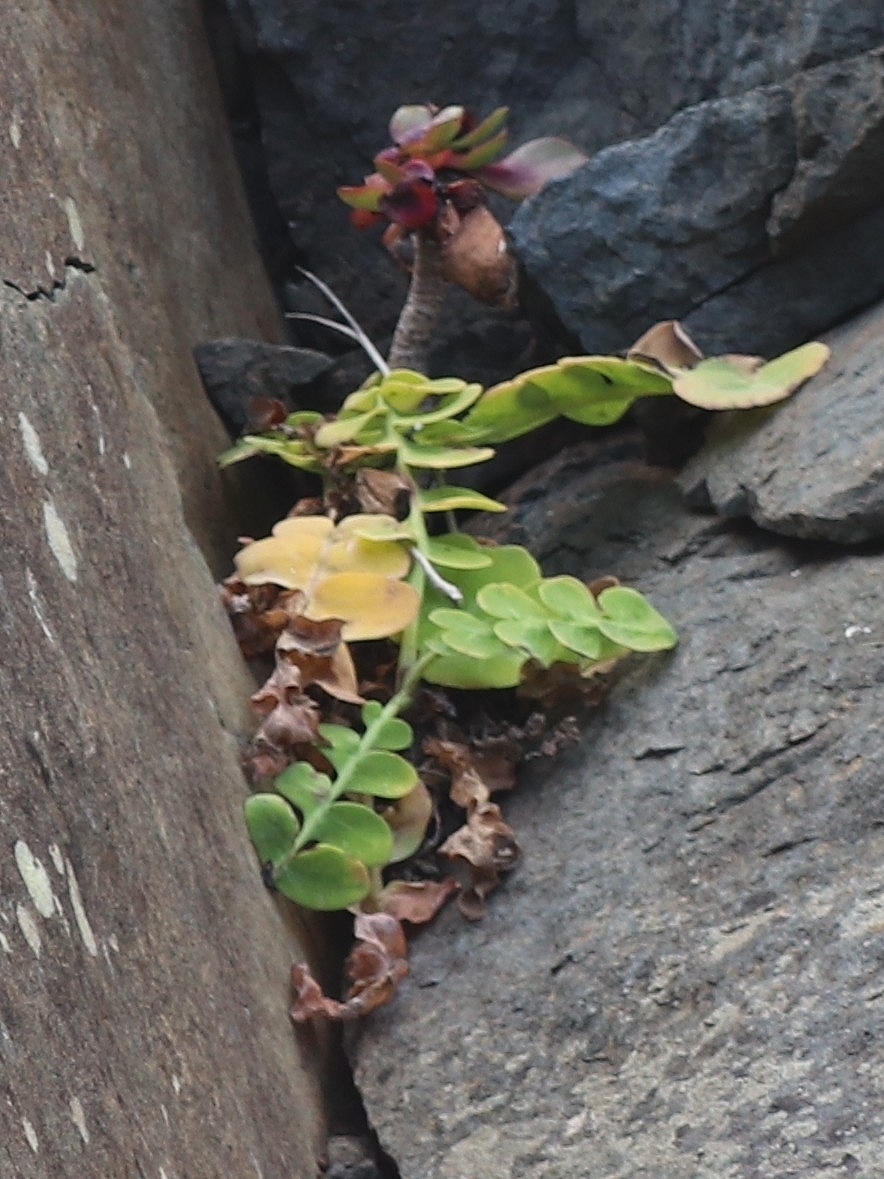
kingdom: Plantae
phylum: Tracheophyta
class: Magnoliopsida
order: Asterales
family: Asteraceae
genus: Sonchus
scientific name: Sonchus latifolius
